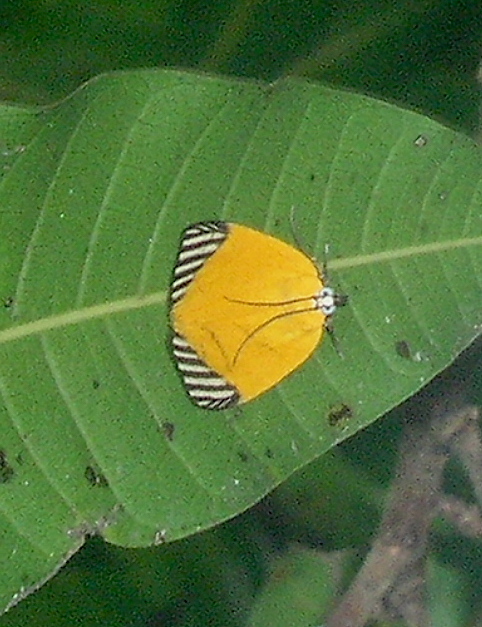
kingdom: Animalia
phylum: Arthropoda
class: Insecta
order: Lepidoptera
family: Pyralidae
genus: Mapeta
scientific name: Mapeta xanthomelas
